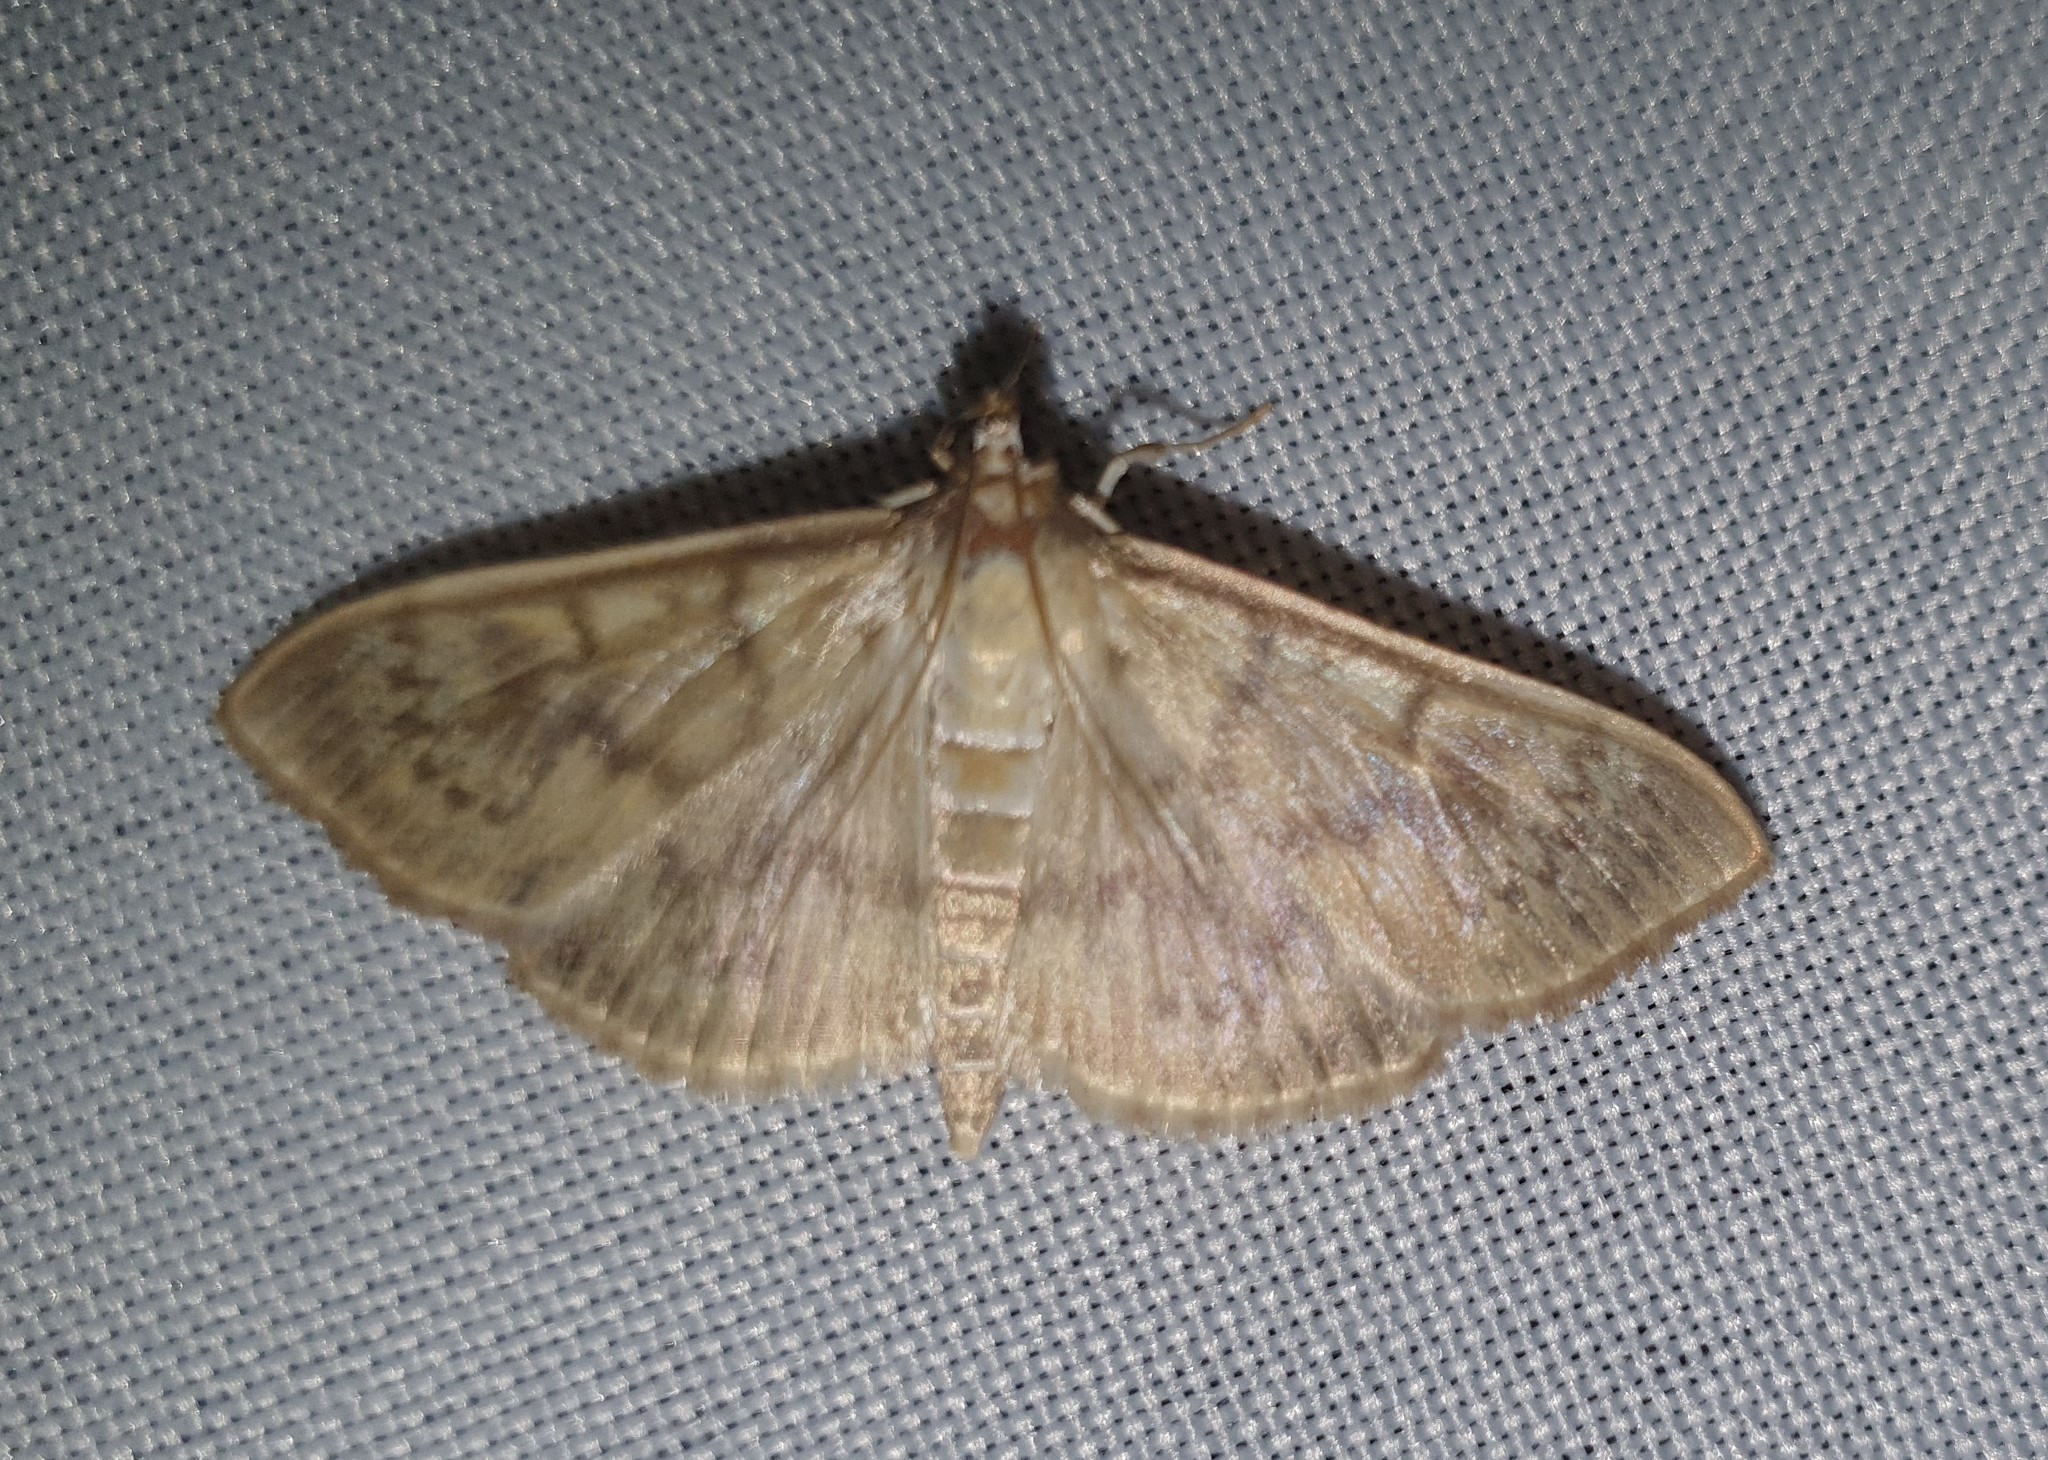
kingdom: Animalia
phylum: Arthropoda
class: Insecta
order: Lepidoptera
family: Crambidae
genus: Patania
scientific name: Patania ruralis
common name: Mother of pearl
